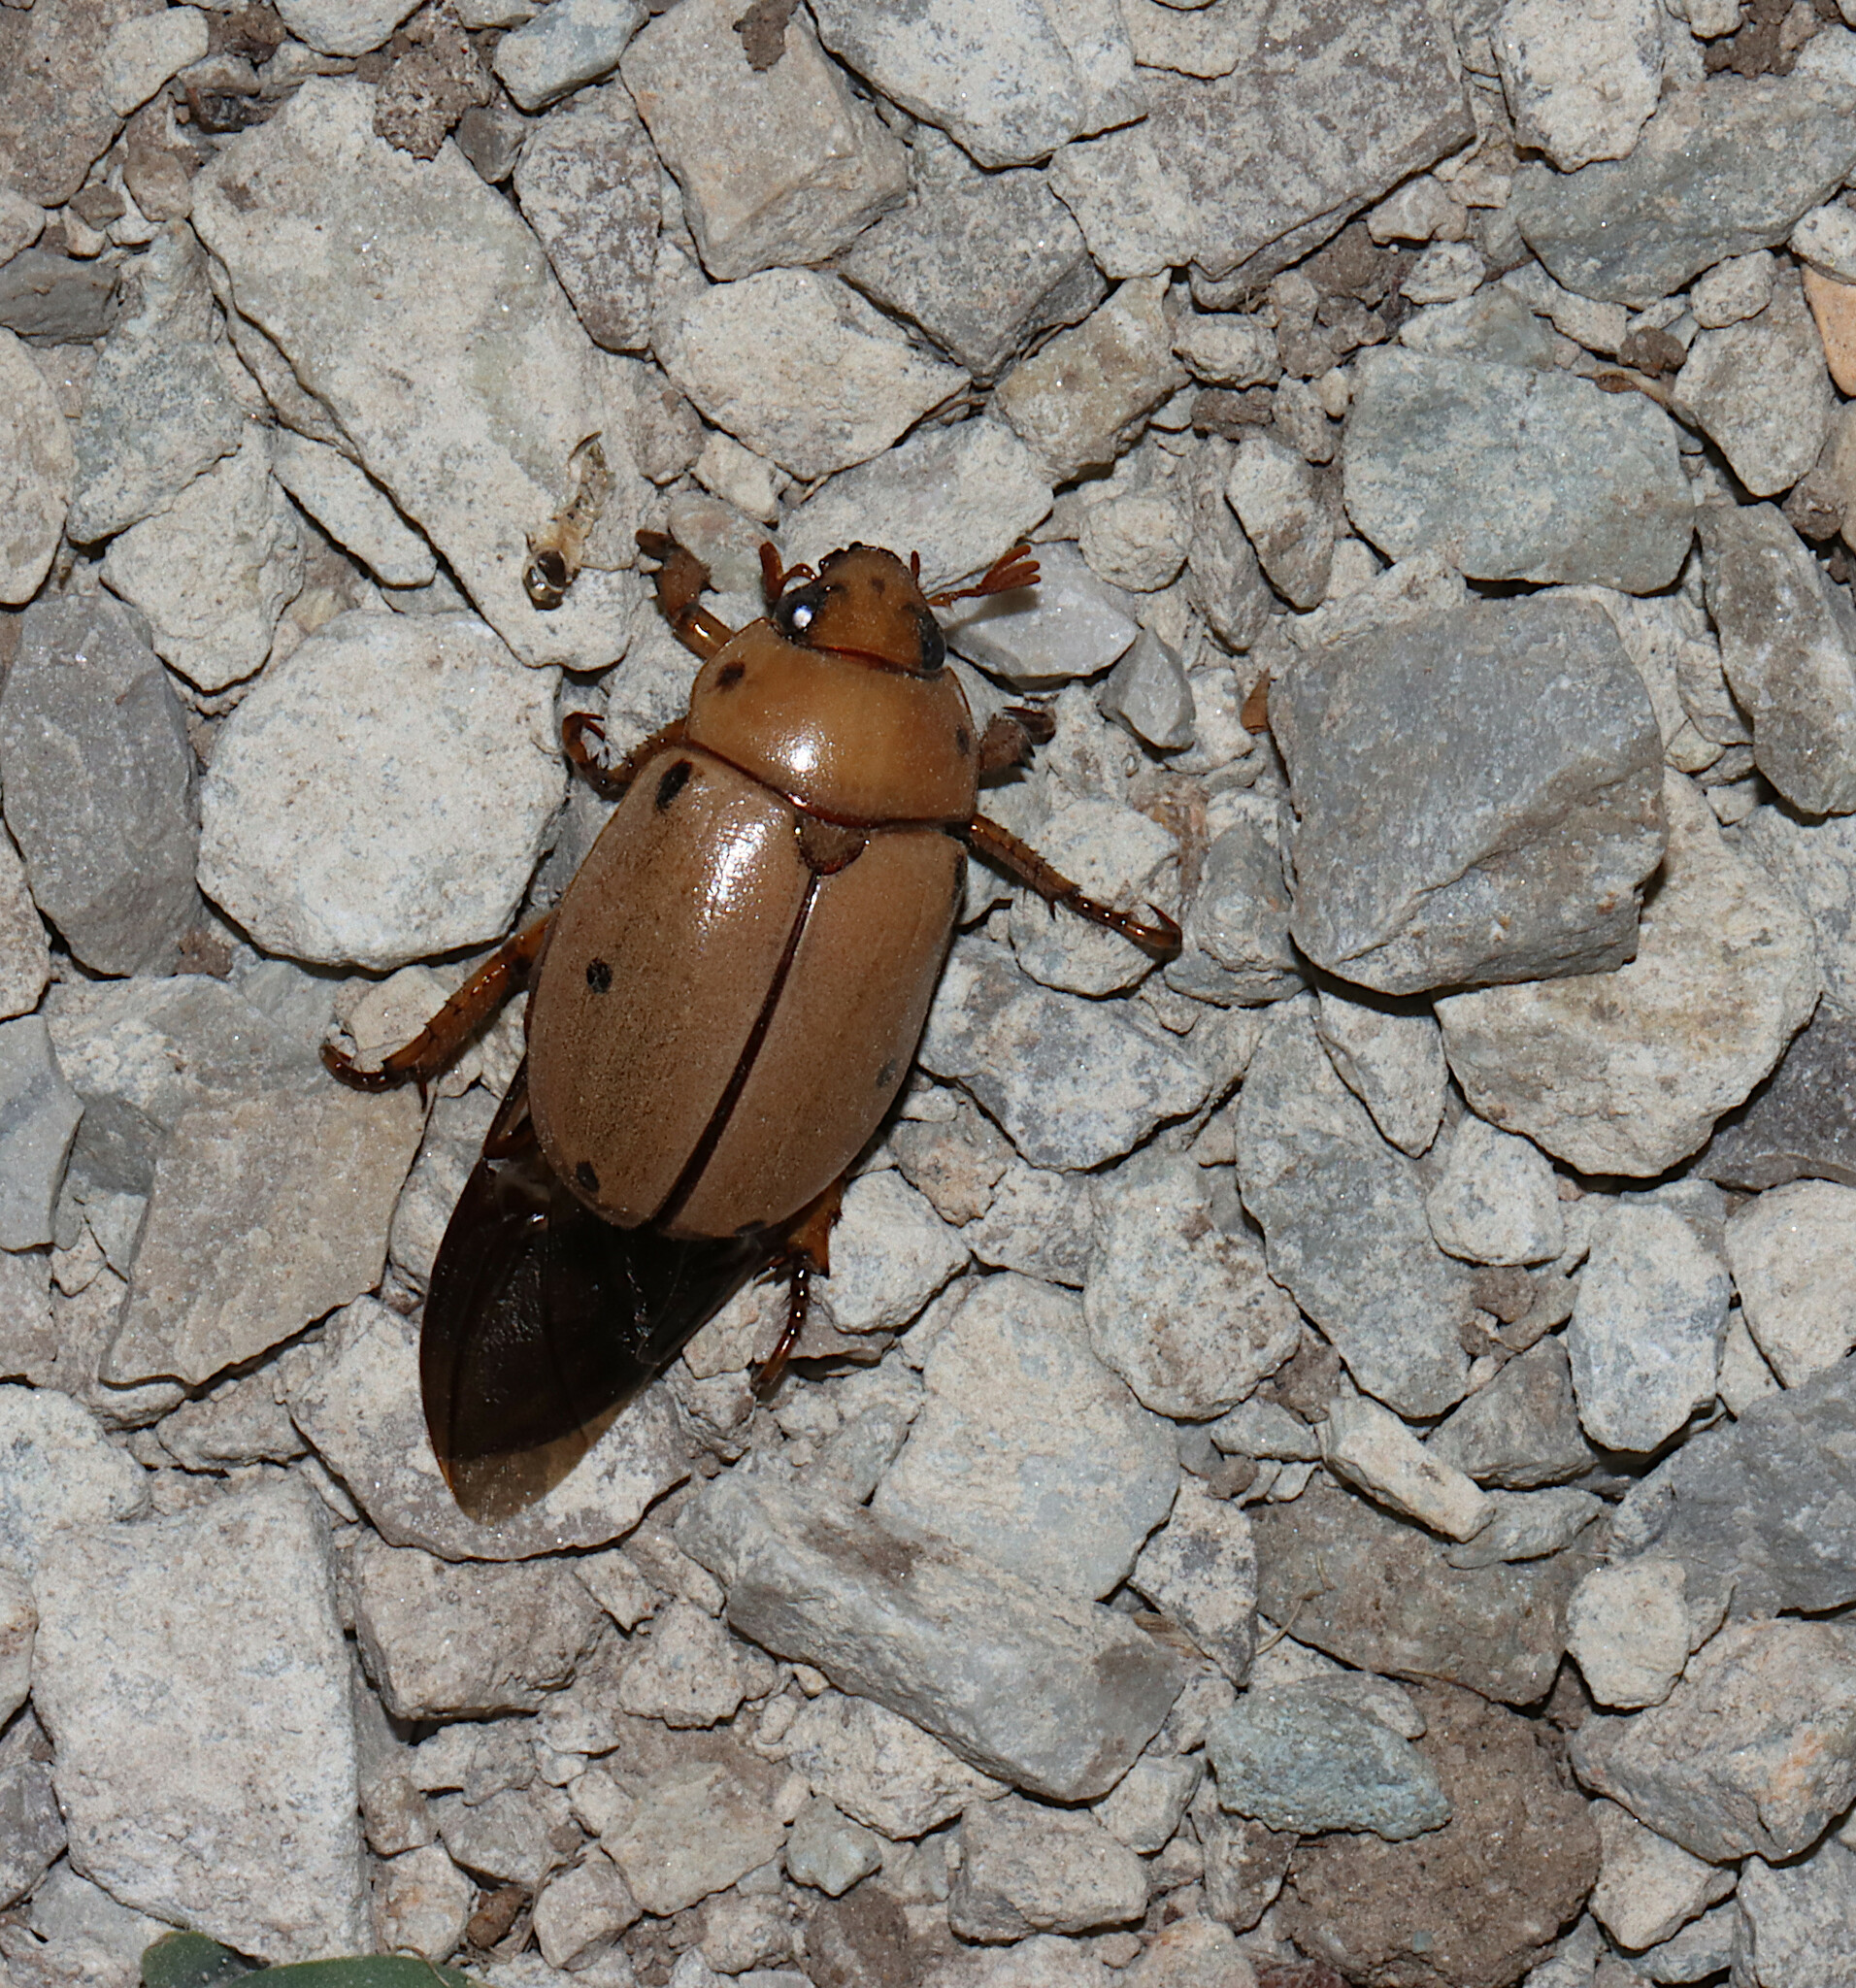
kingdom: Animalia
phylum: Arthropoda
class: Insecta
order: Coleoptera
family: Scarabaeidae
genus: Pelidnota
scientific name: Pelidnota punctata
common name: Grapevine beetle
